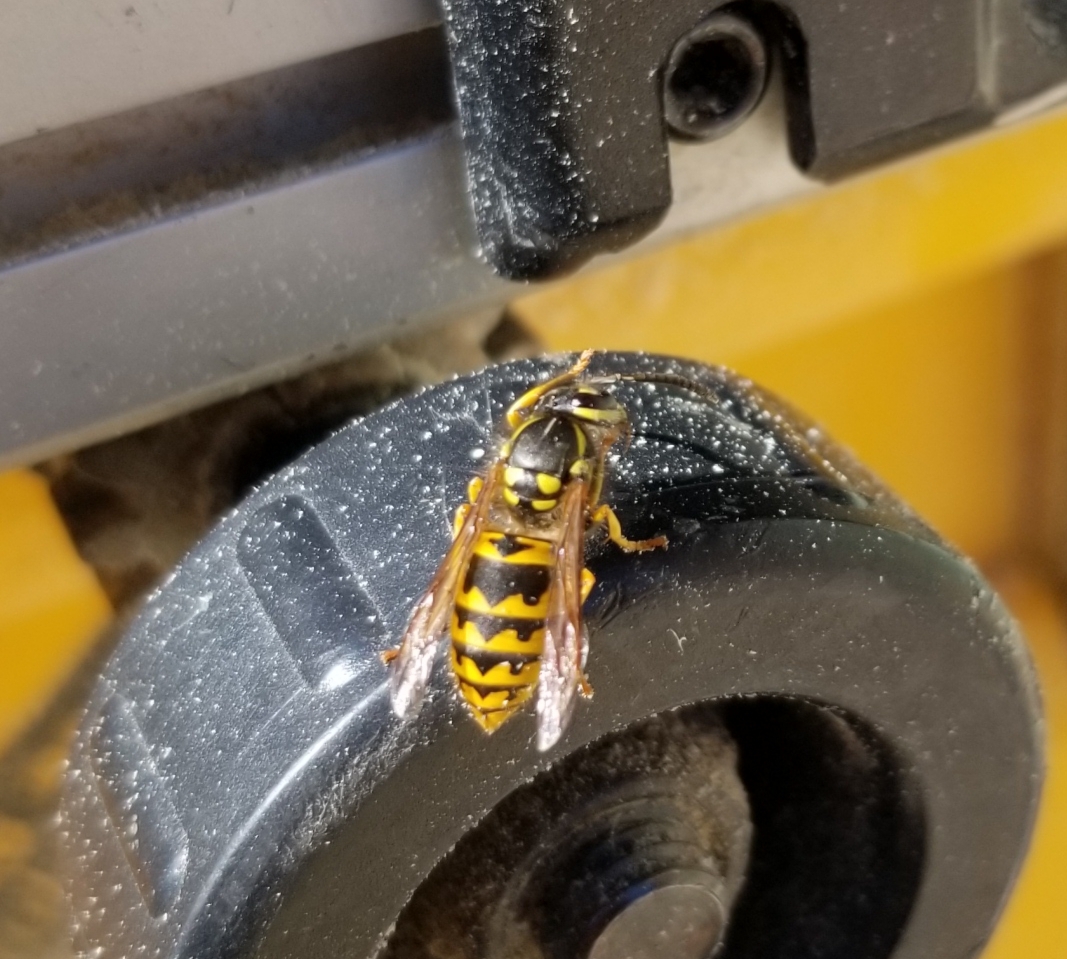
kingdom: Animalia
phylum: Arthropoda
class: Insecta
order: Hymenoptera
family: Vespidae
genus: Vespula
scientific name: Vespula maculifrons
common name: Eastern yellowjacket
